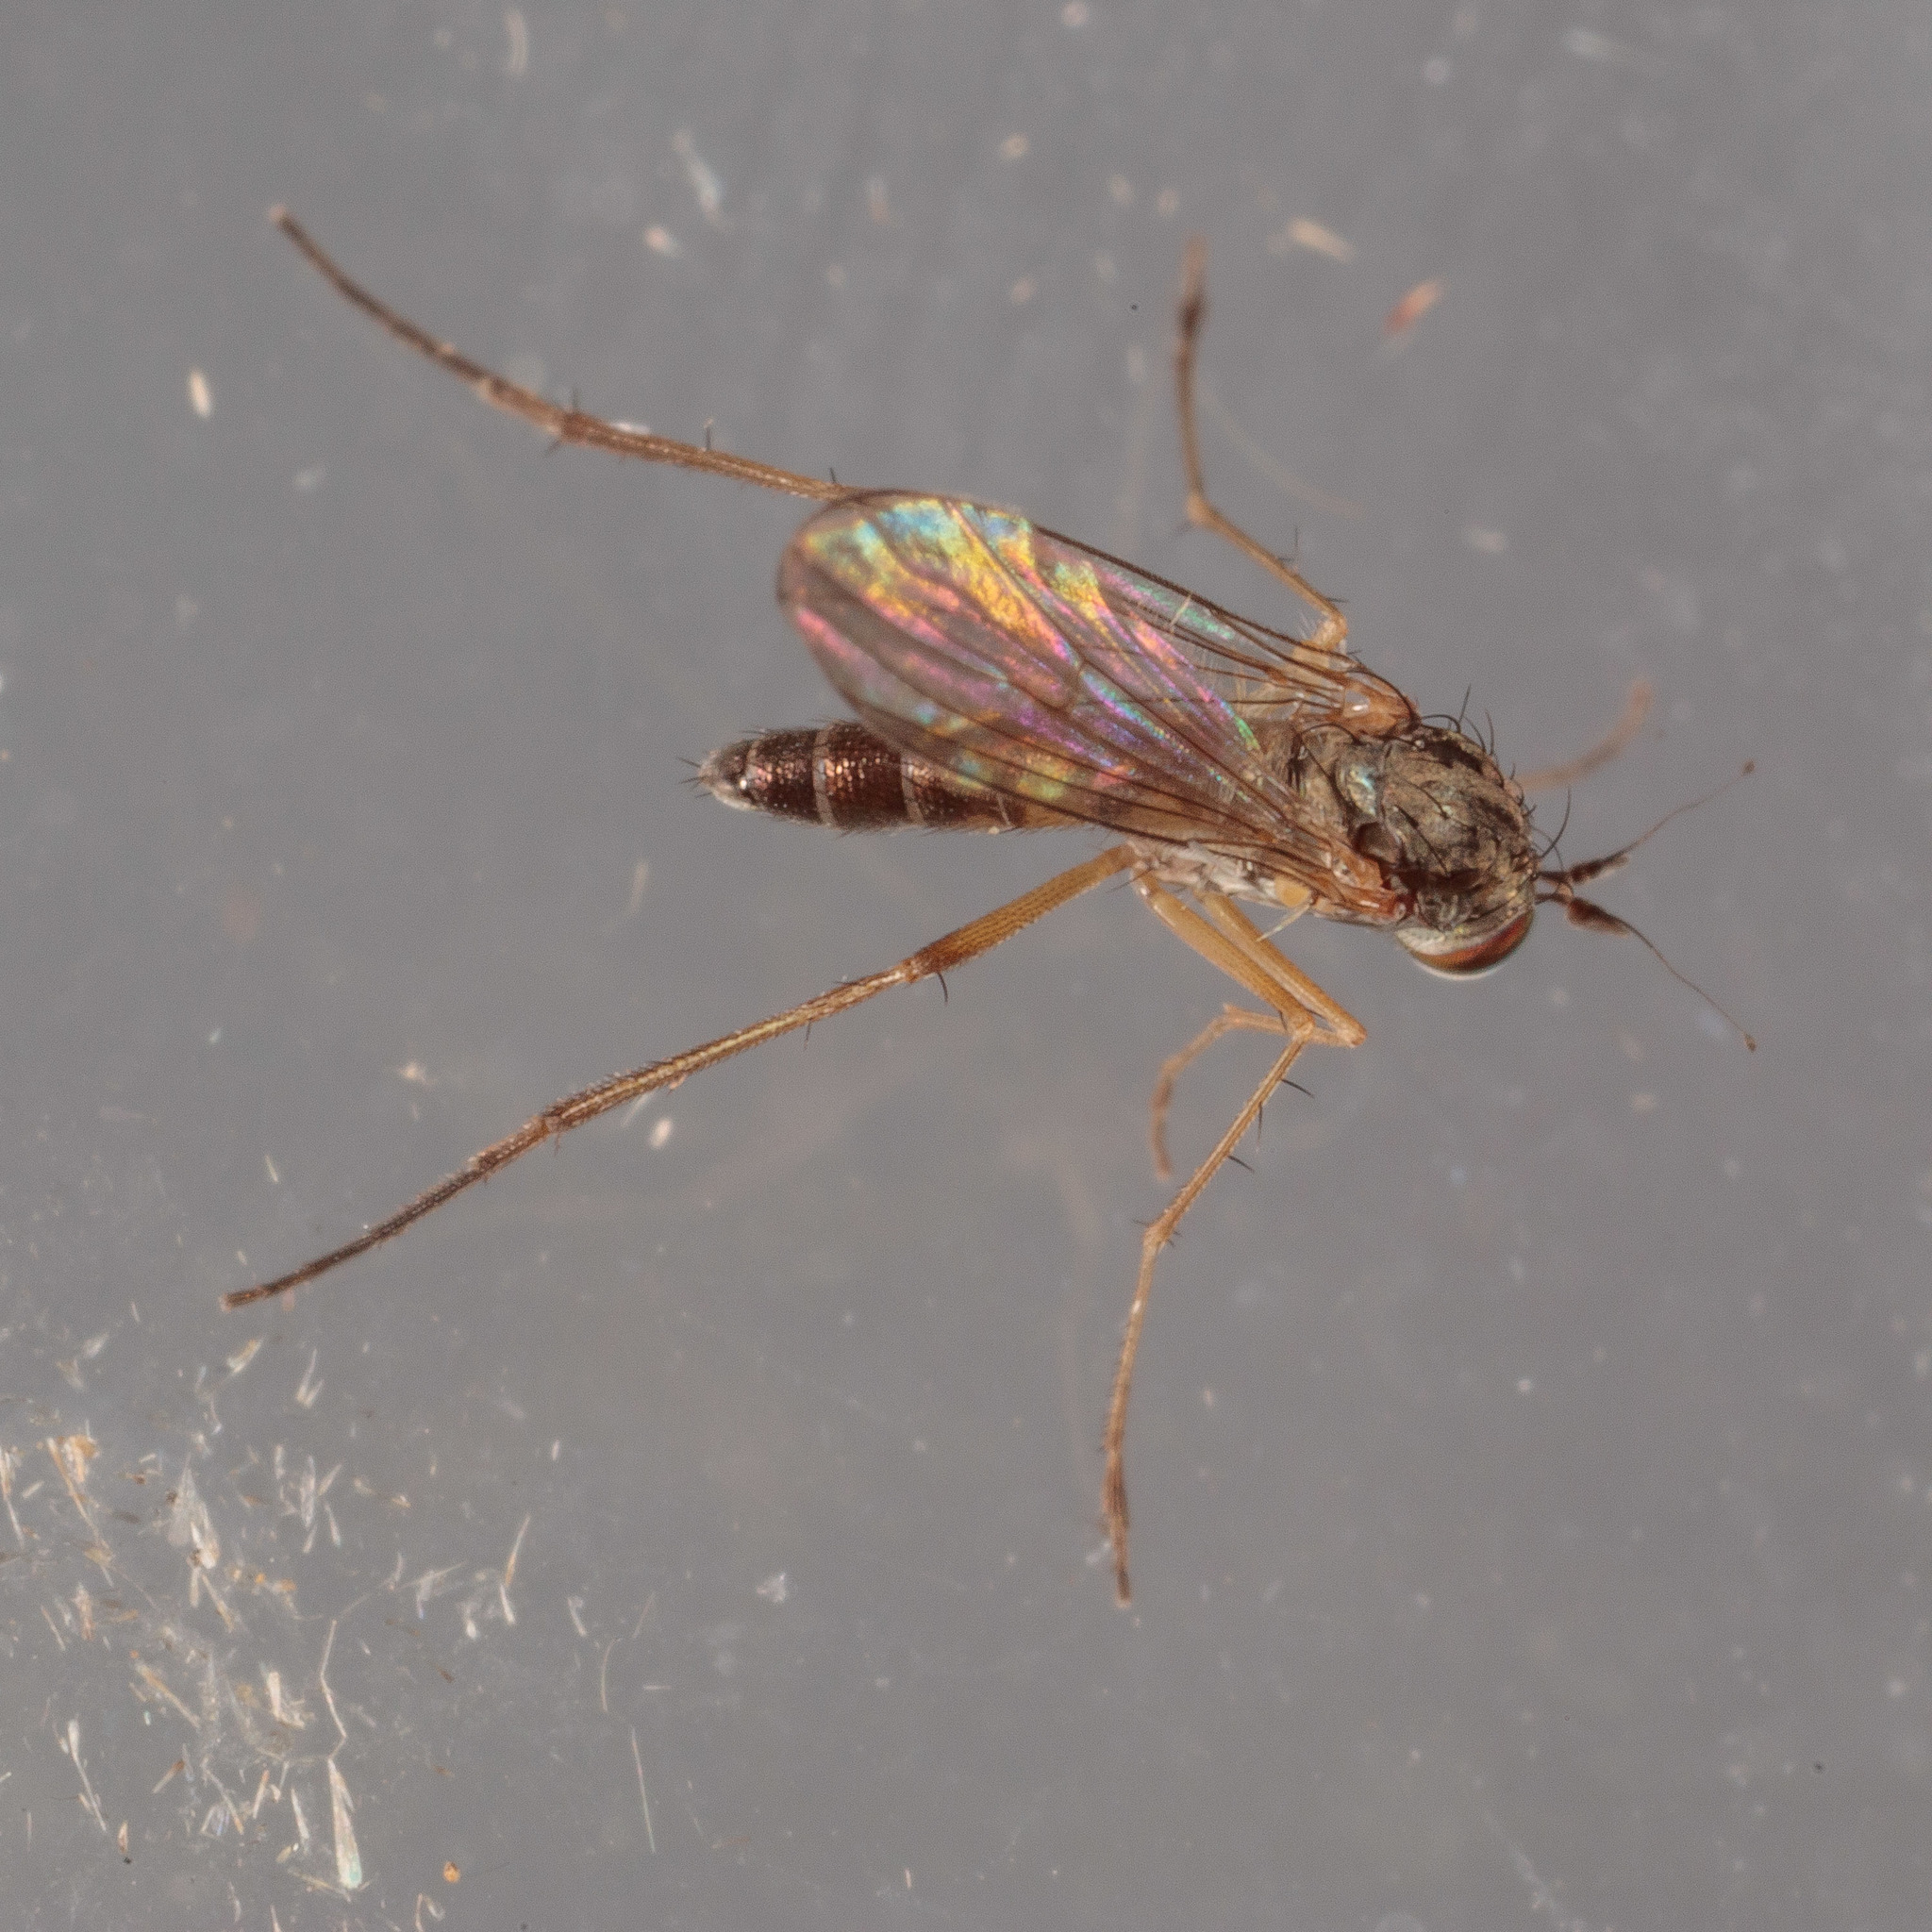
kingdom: Animalia
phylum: Arthropoda
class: Insecta
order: Diptera
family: Dolichopodidae
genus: Calyxochaetus
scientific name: Calyxochaetus
